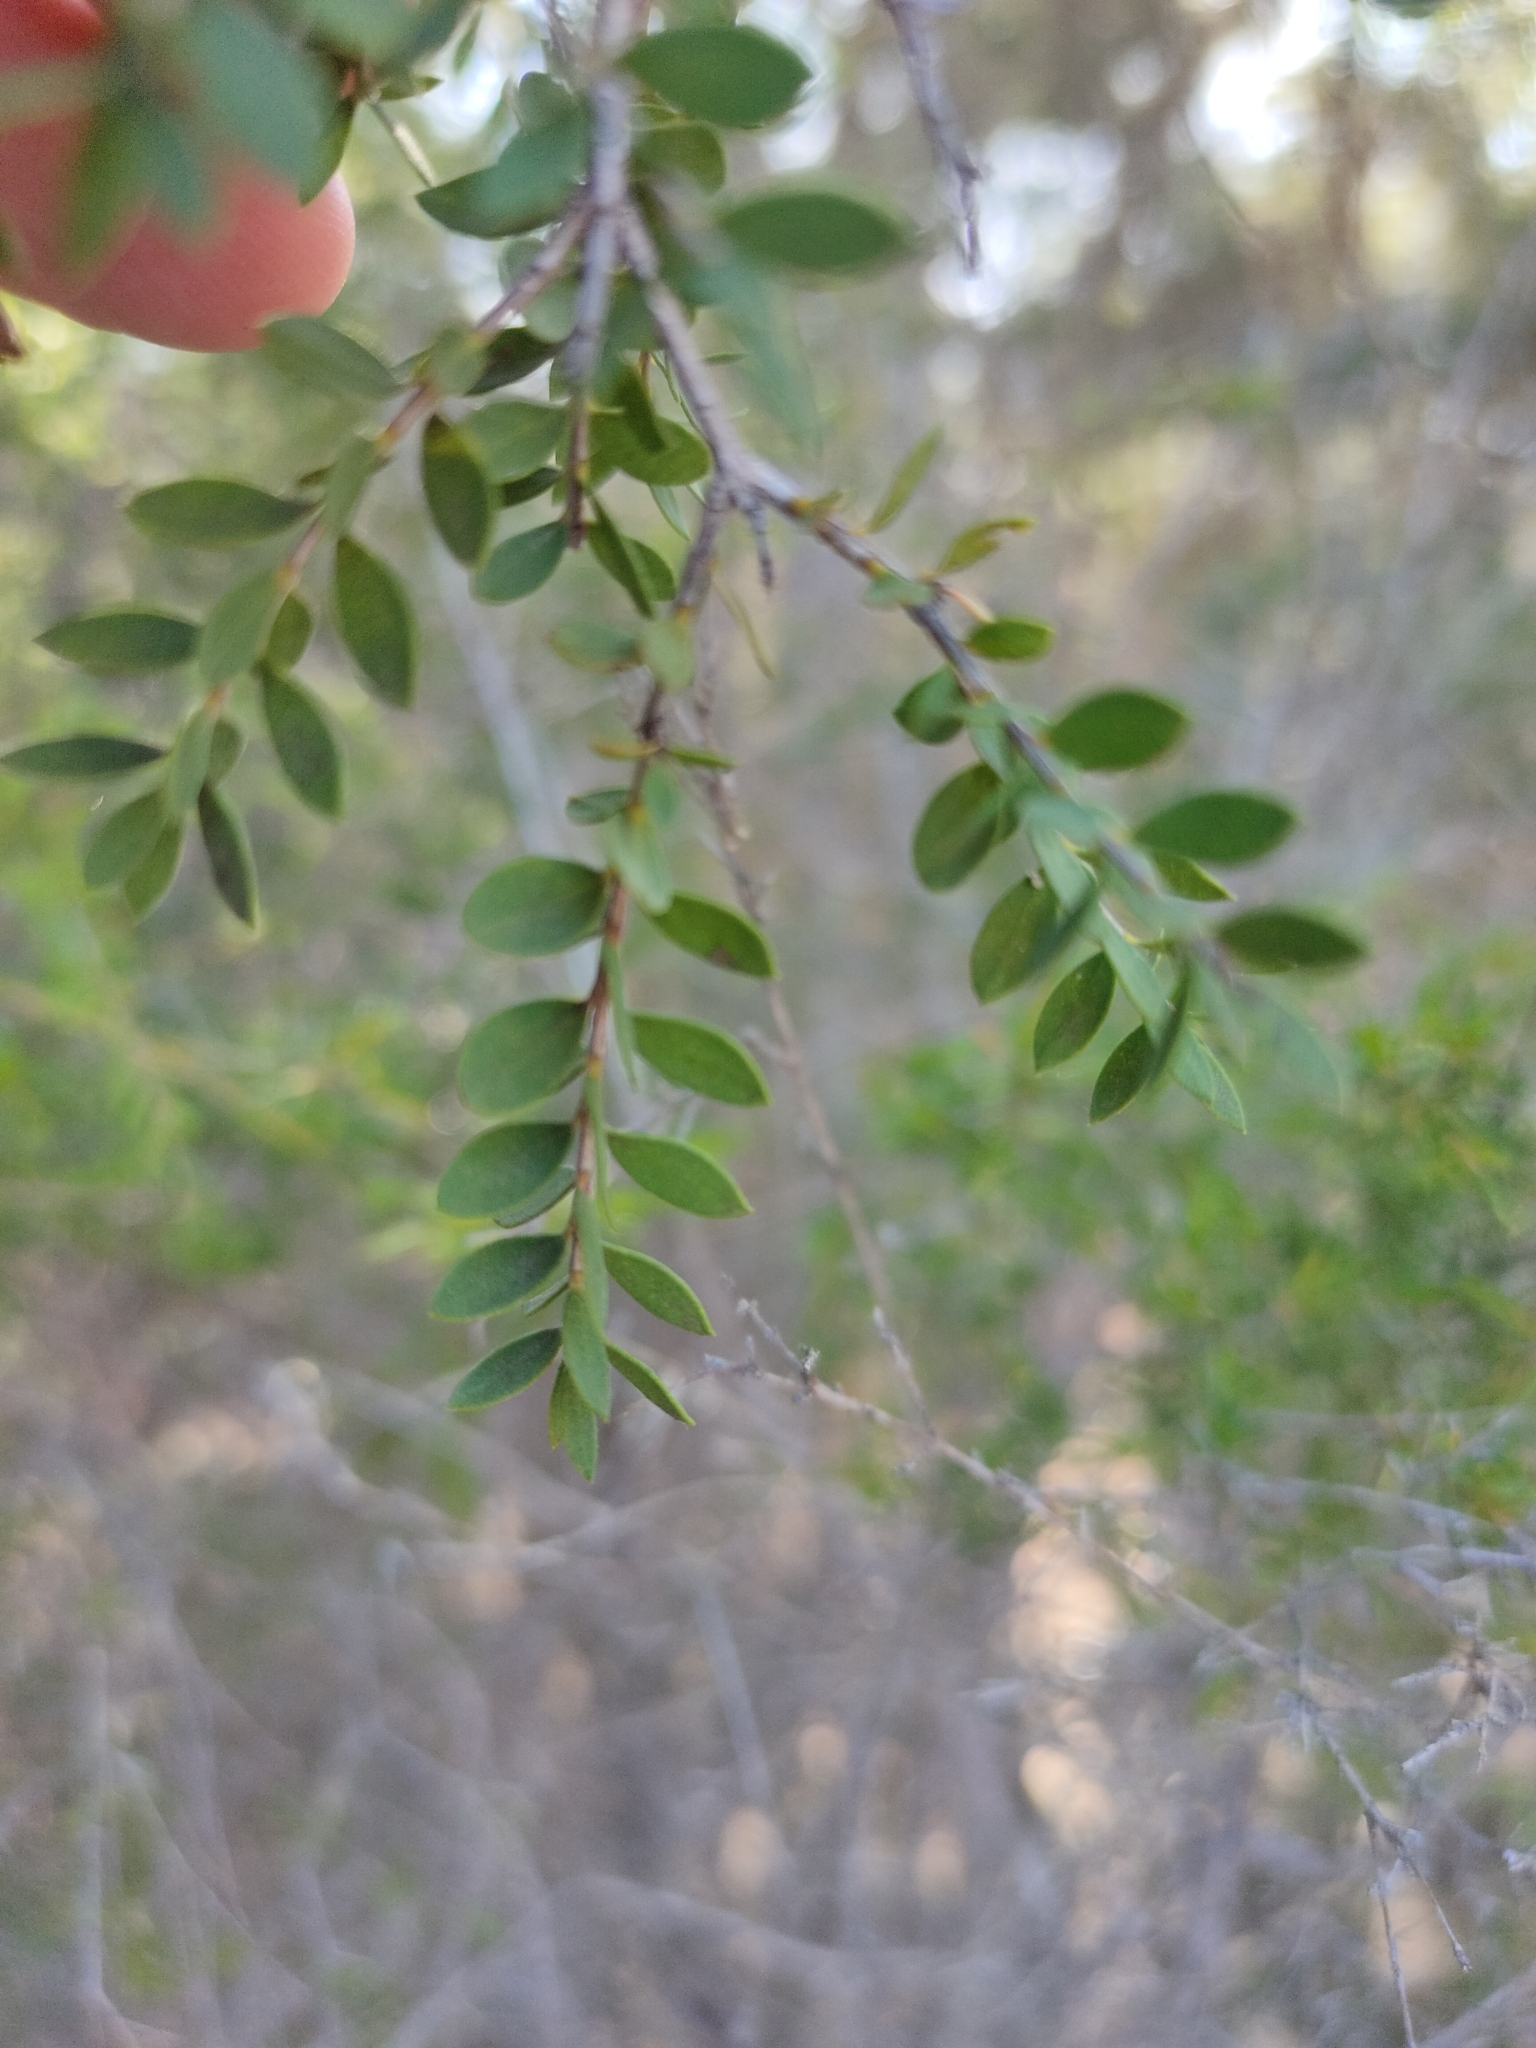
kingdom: Plantae
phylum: Tracheophyta
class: Magnoliopsida
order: Myrtales
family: Myrtaceae
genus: Melaleuca
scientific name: Melaleuca cheelii
